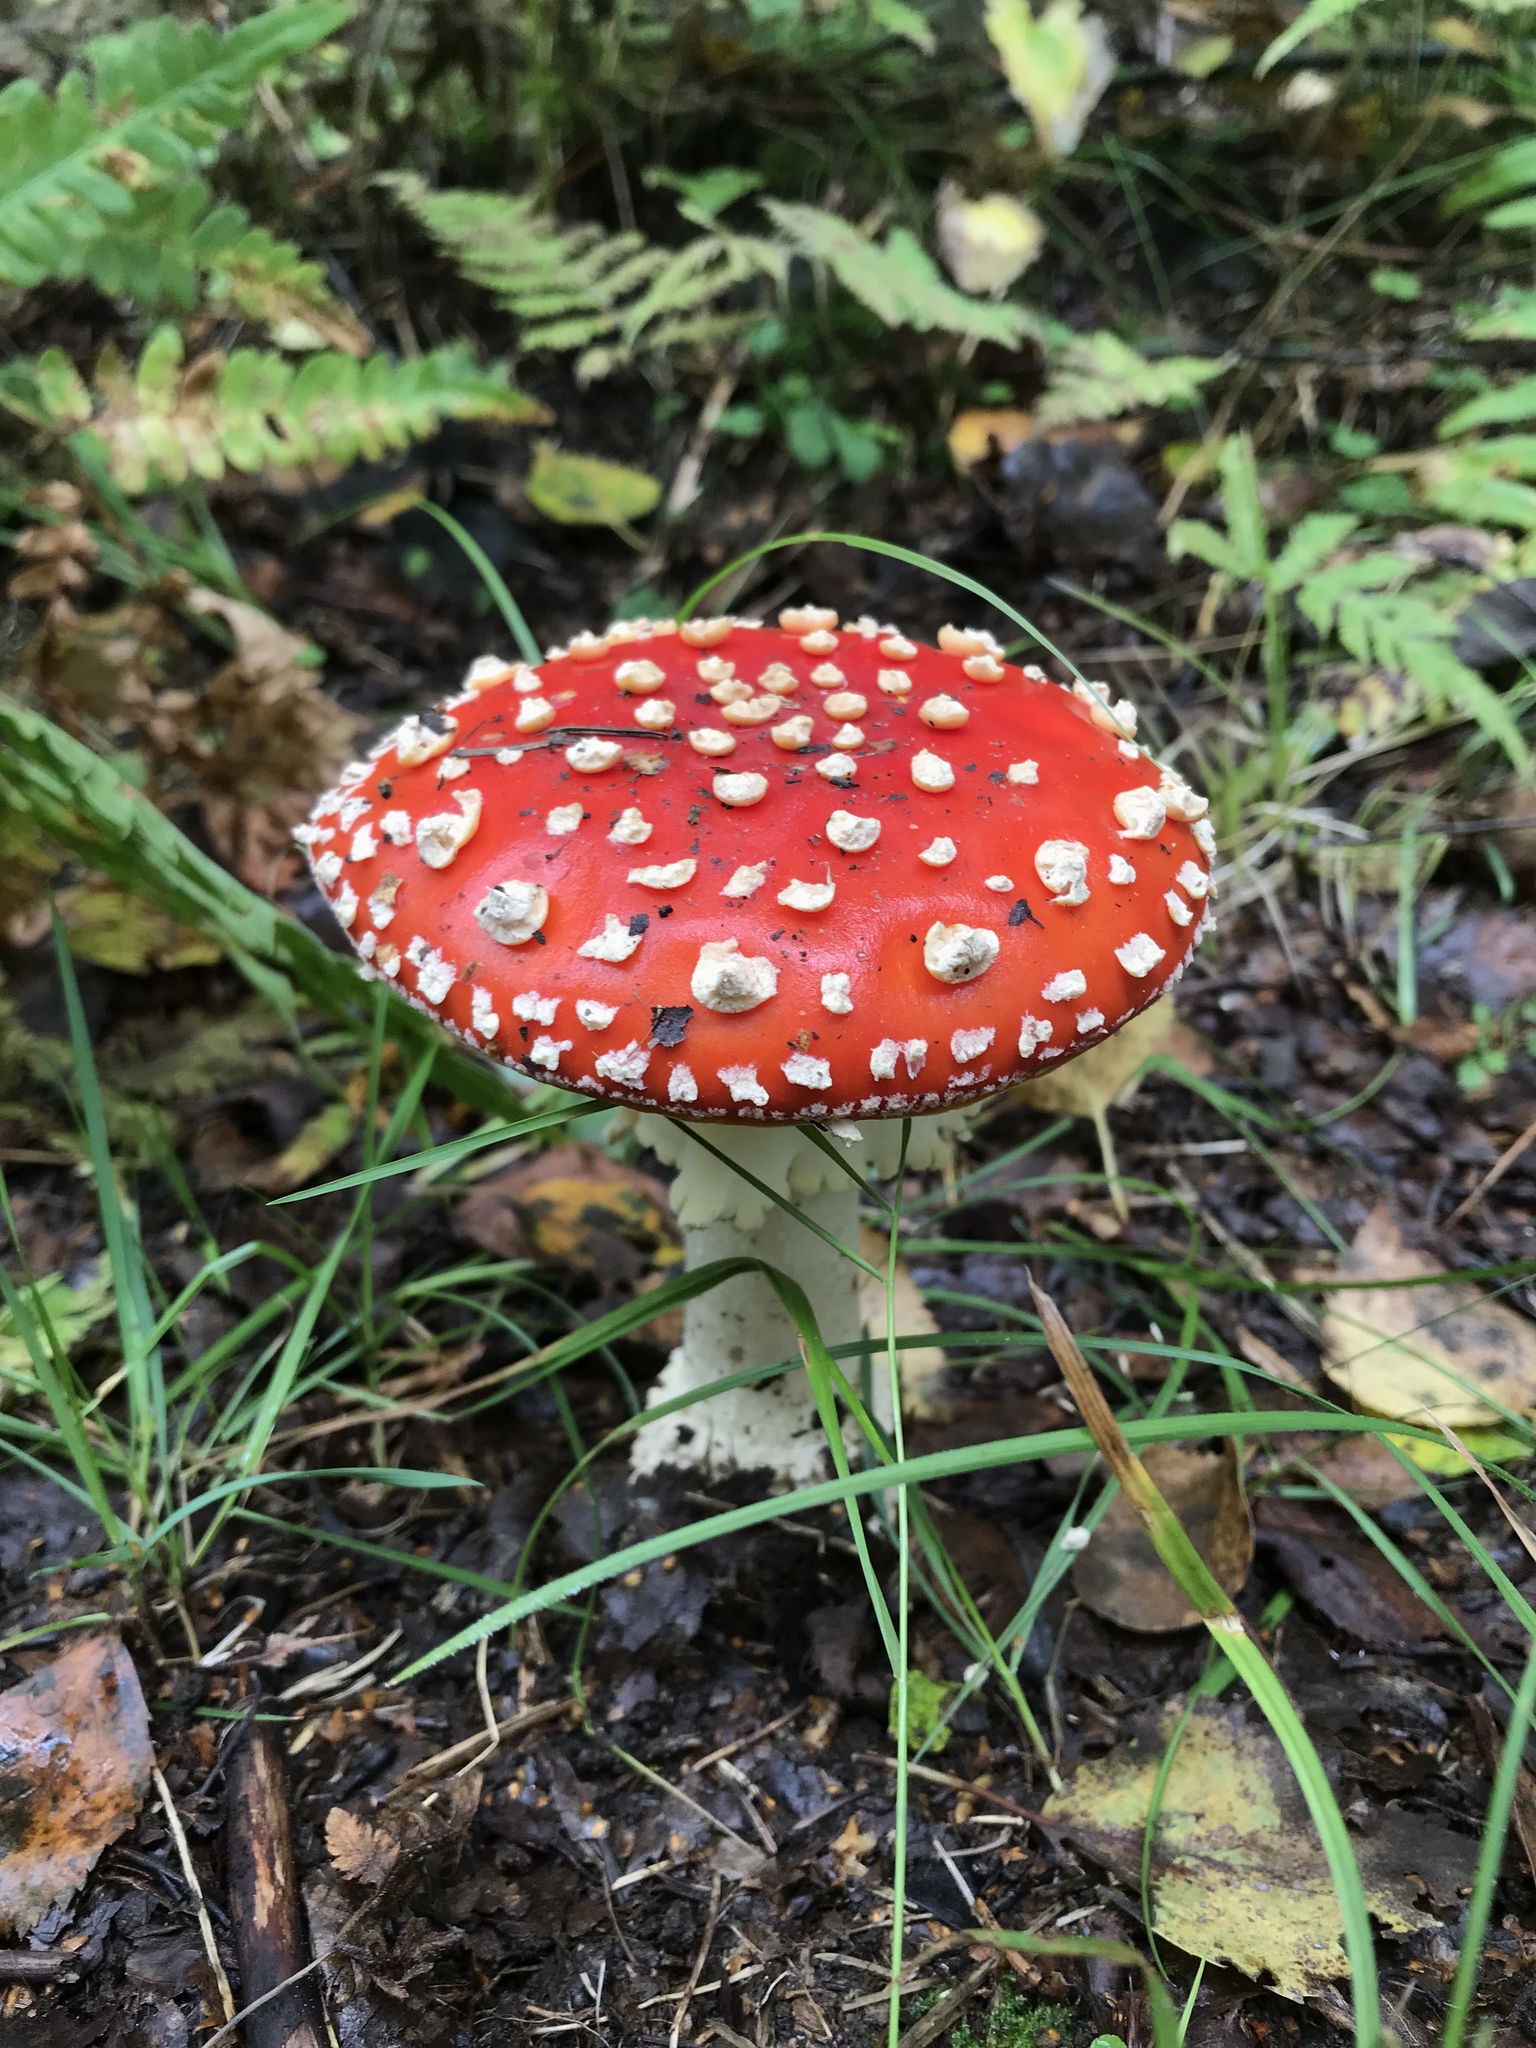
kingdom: Fungi
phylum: Basidiomycota
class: Agaricomycetes
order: Agaricales
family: Amanitaceae
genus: Amanita
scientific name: Amanita muscaria
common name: Fly agaric
